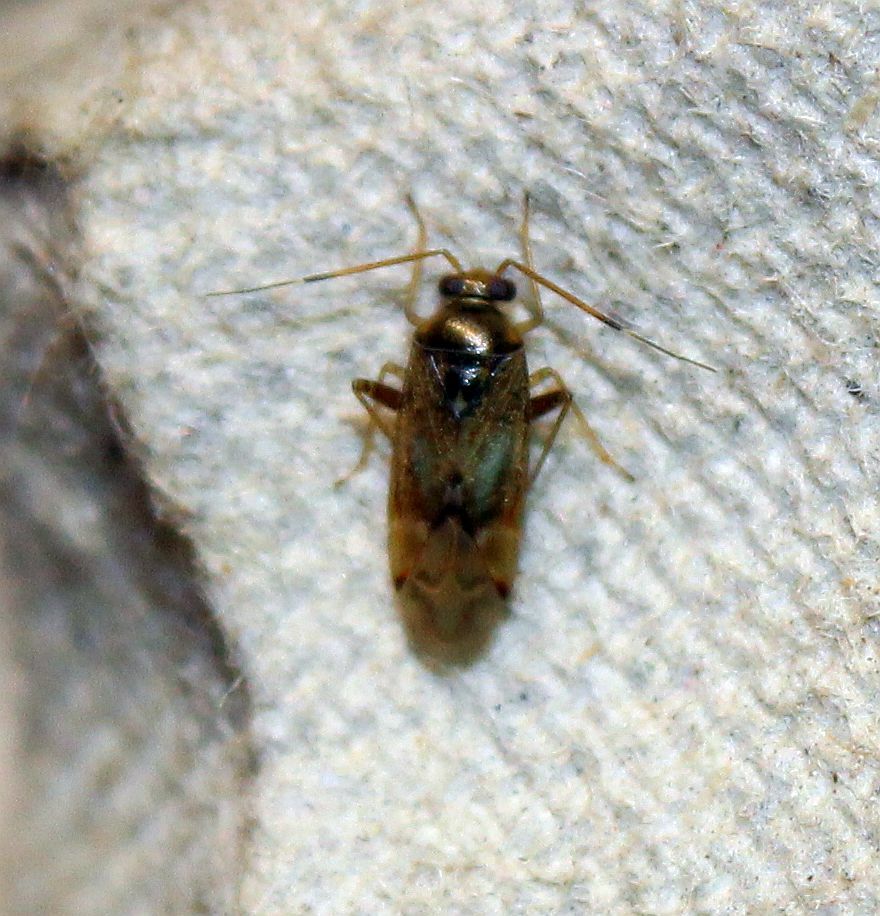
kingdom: Animalia
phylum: Arthropoda
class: Insecta
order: Hemiptera
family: Miridae
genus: Pinalitus
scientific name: Pinalitus cervinus
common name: Plant bug
